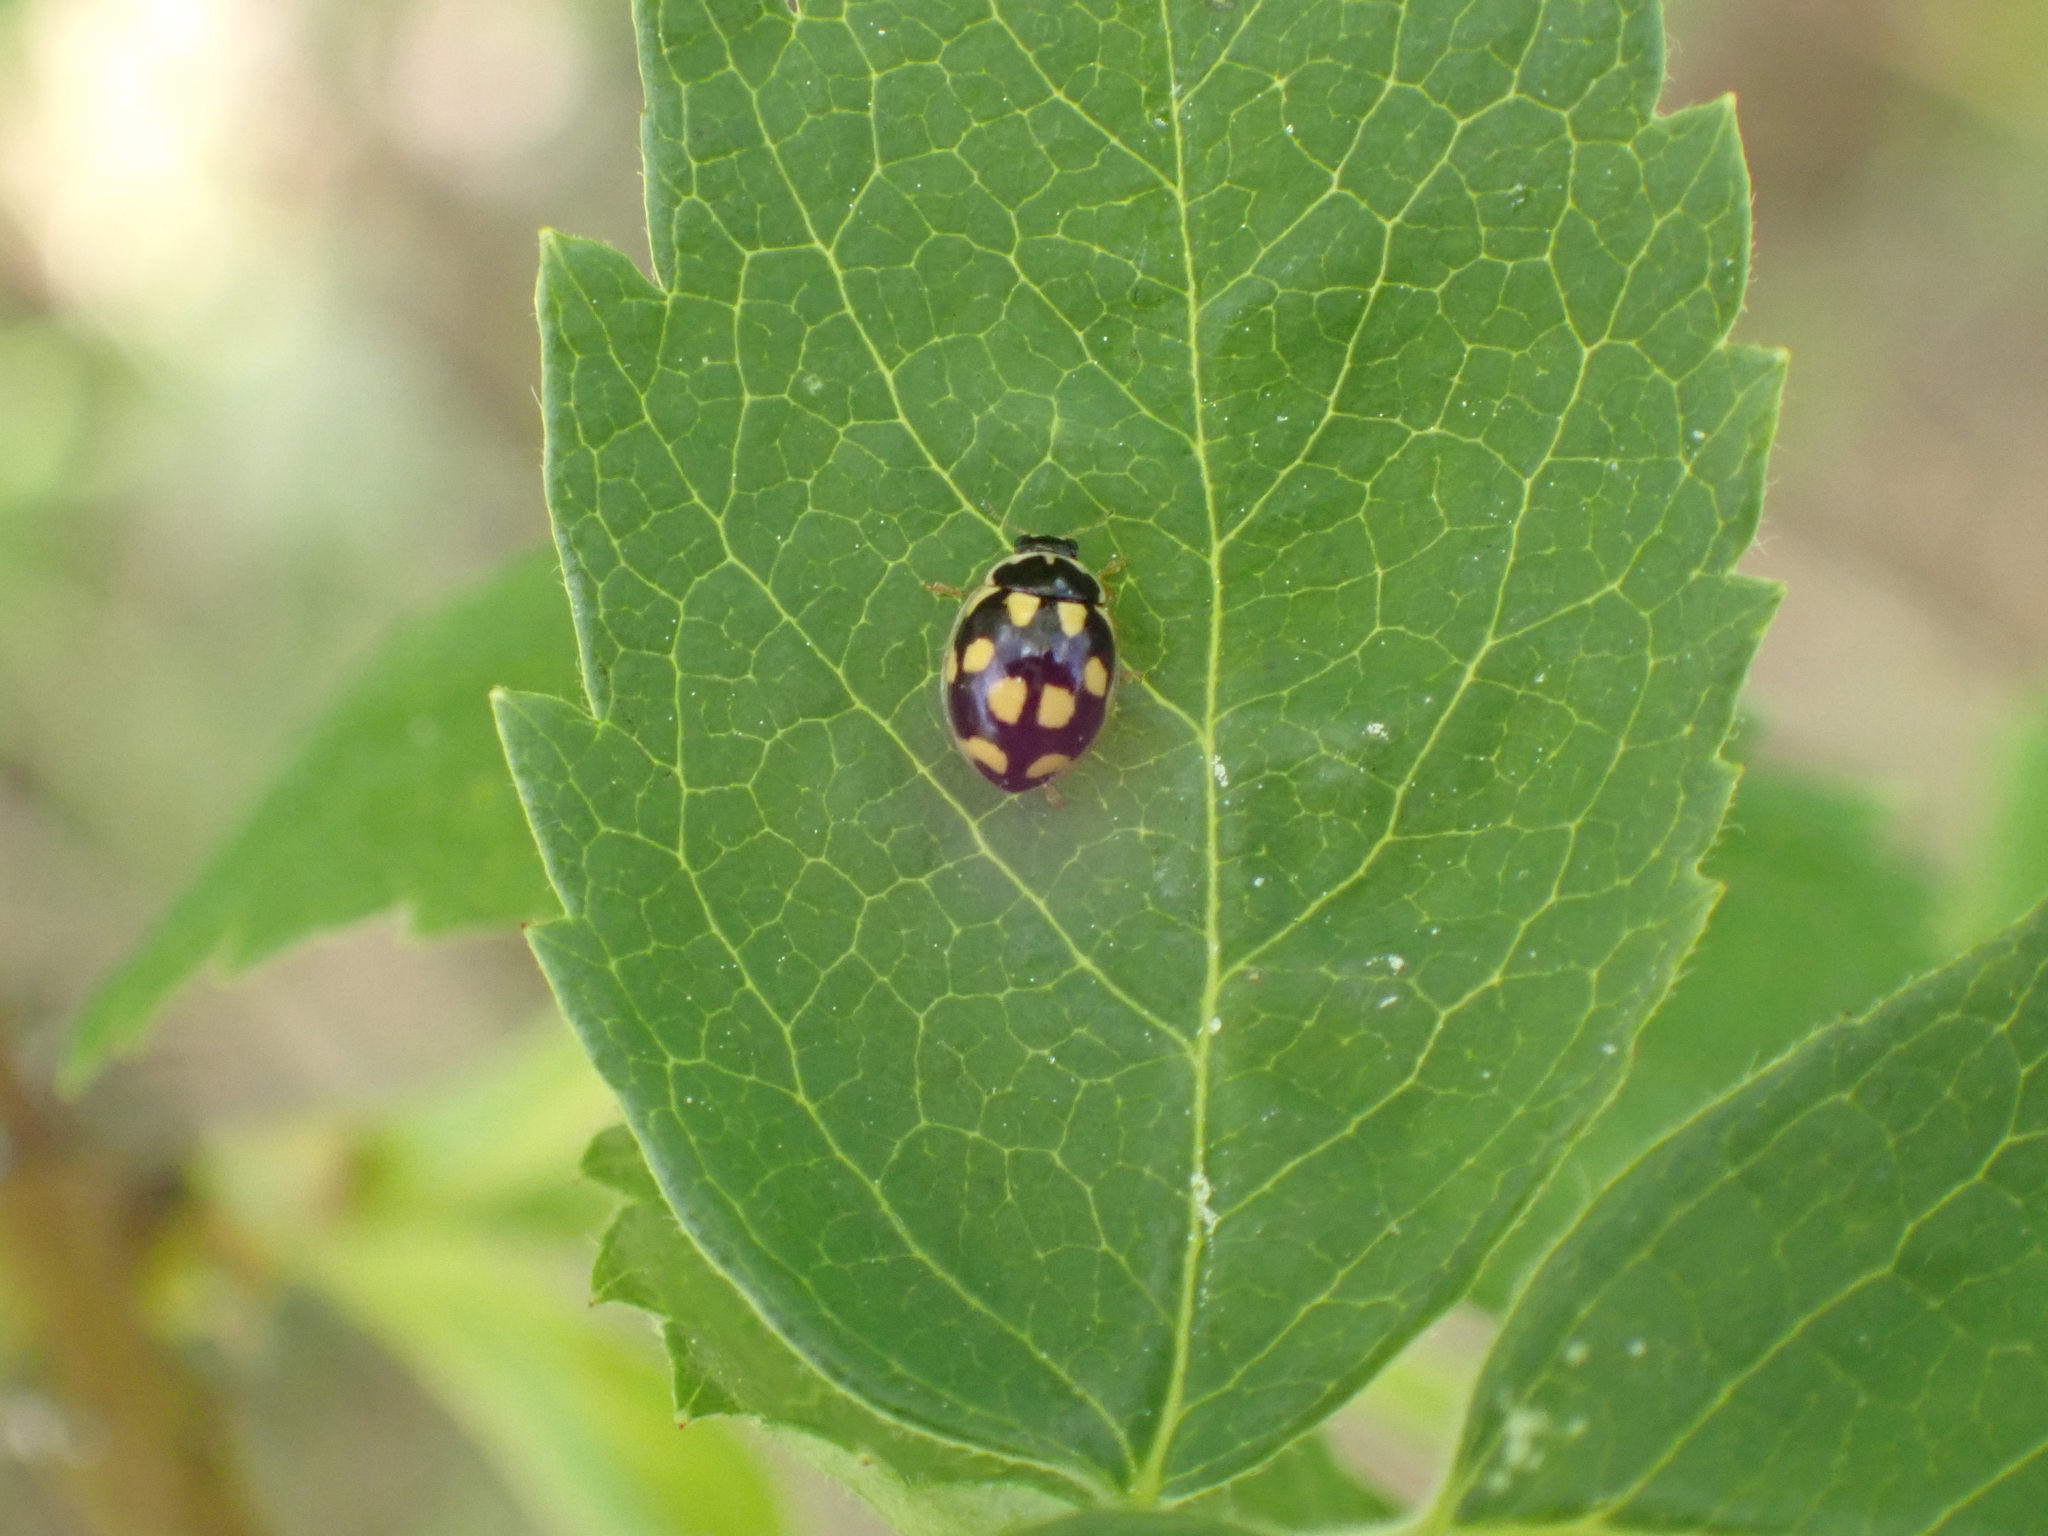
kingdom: Animalia
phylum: Arthropoda
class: Insecta
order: Coleoptera
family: Coccinellidae
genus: Propylaea
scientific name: Propylaea quatuordecimpunctata
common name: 14-spotted ladybird beetle
